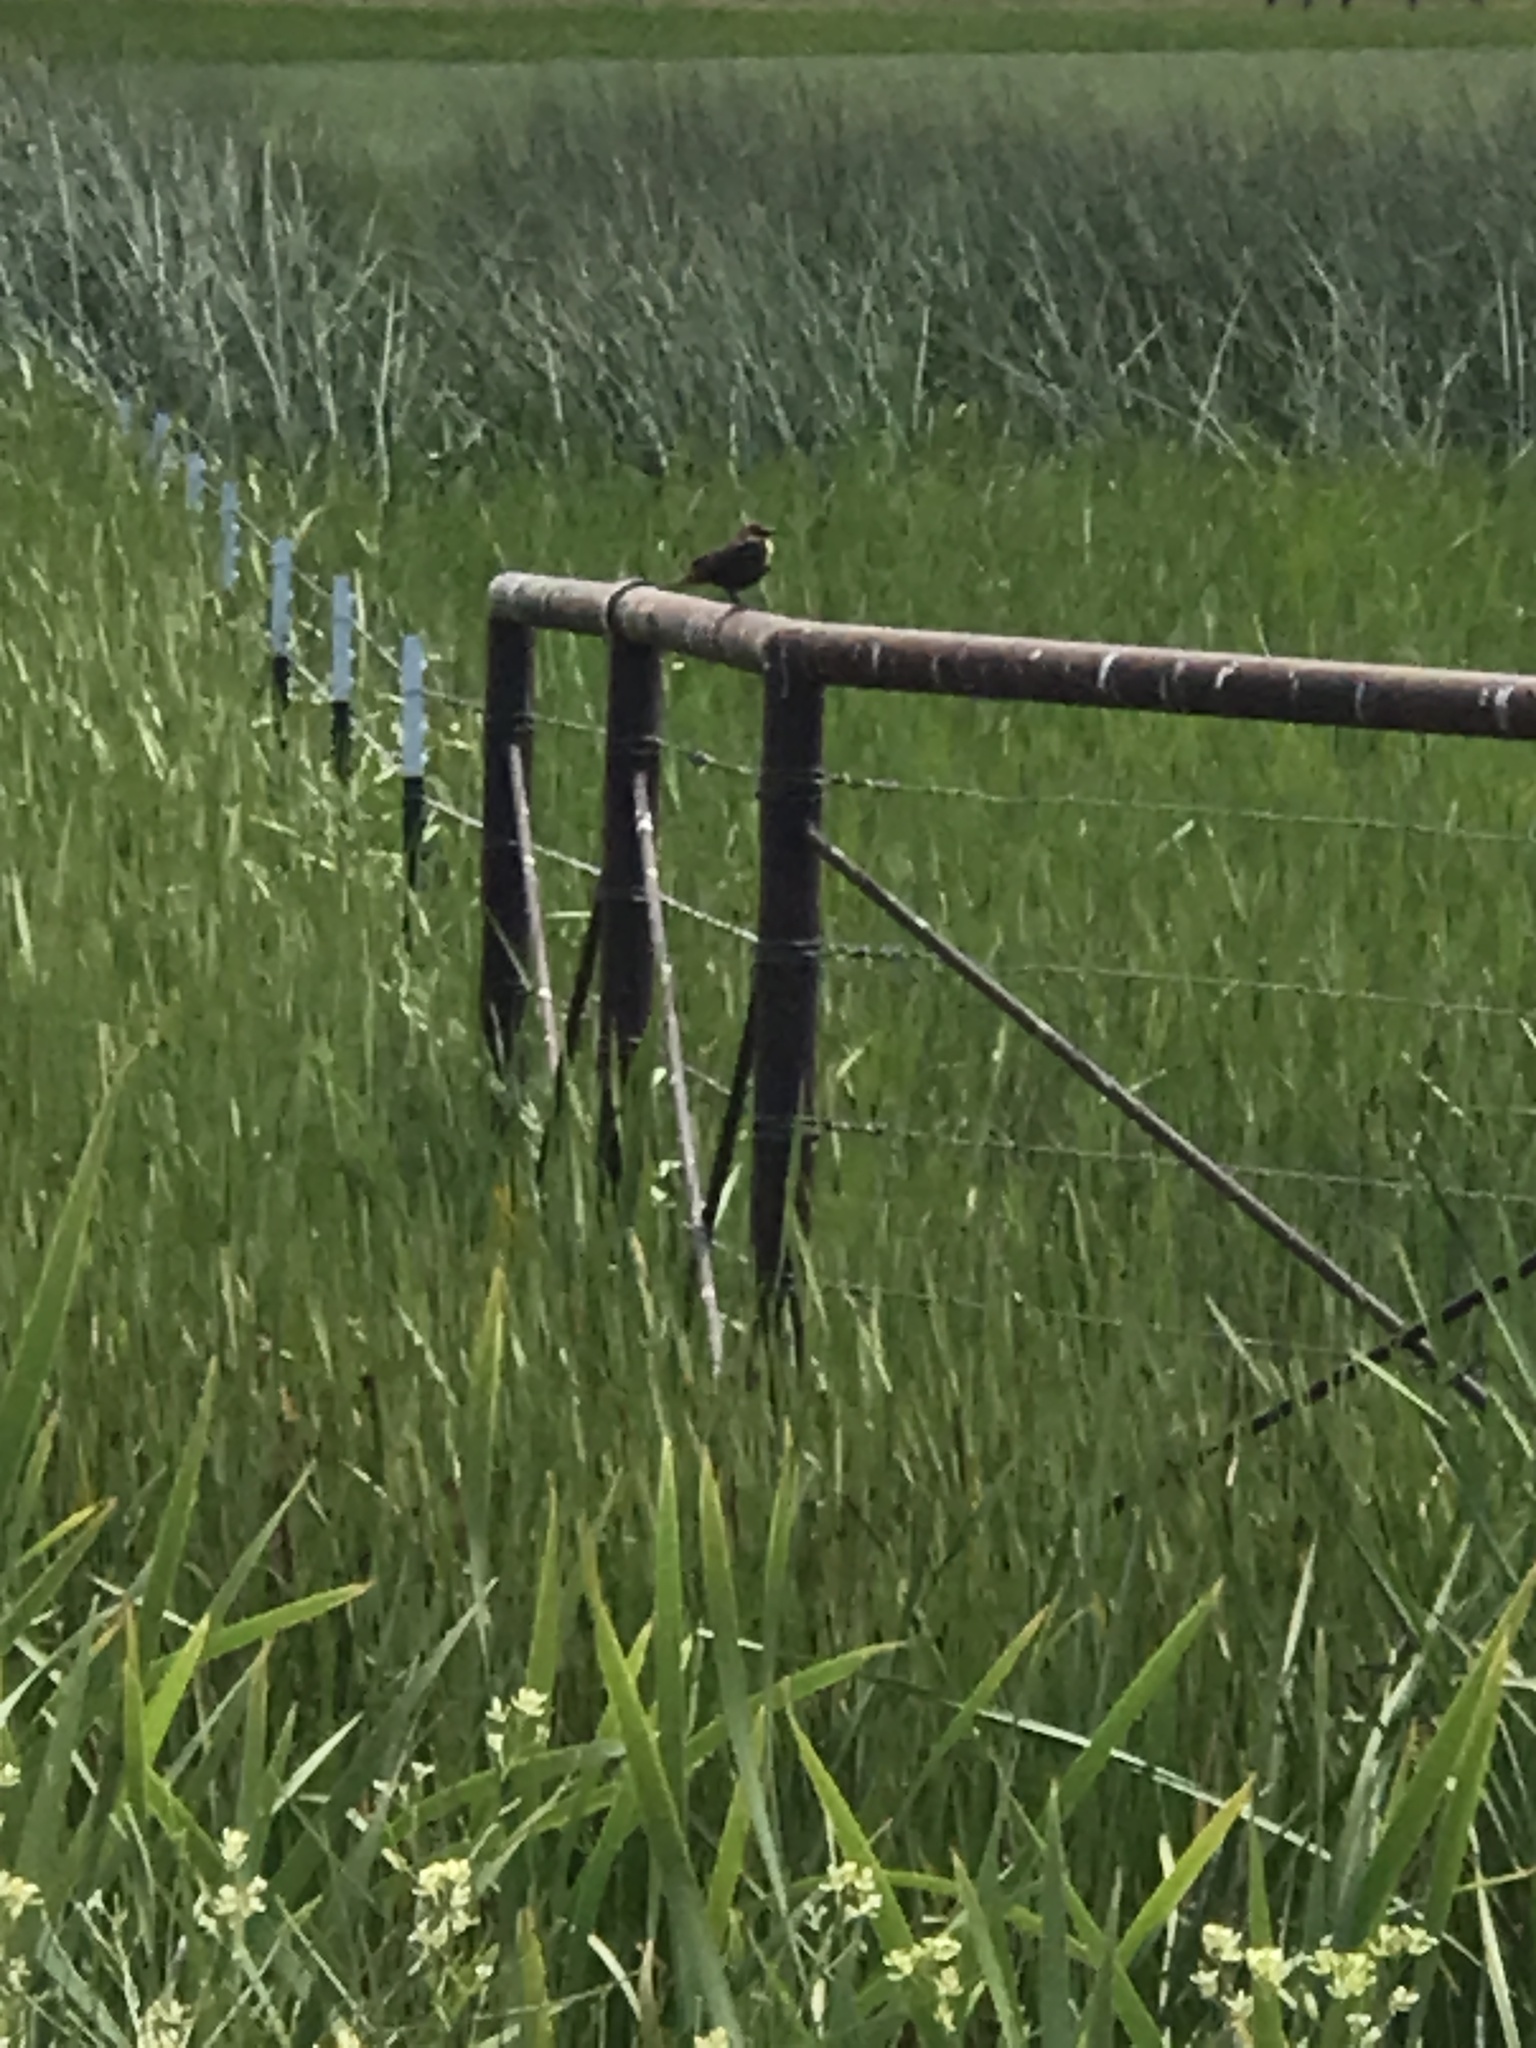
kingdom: Animalia
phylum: Chordata
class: Aves
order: Passeriformes
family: Icteridae
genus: Xanthocephalus
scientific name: Xanthocephalus xanthocephalus
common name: Yellow-headed blackbird
